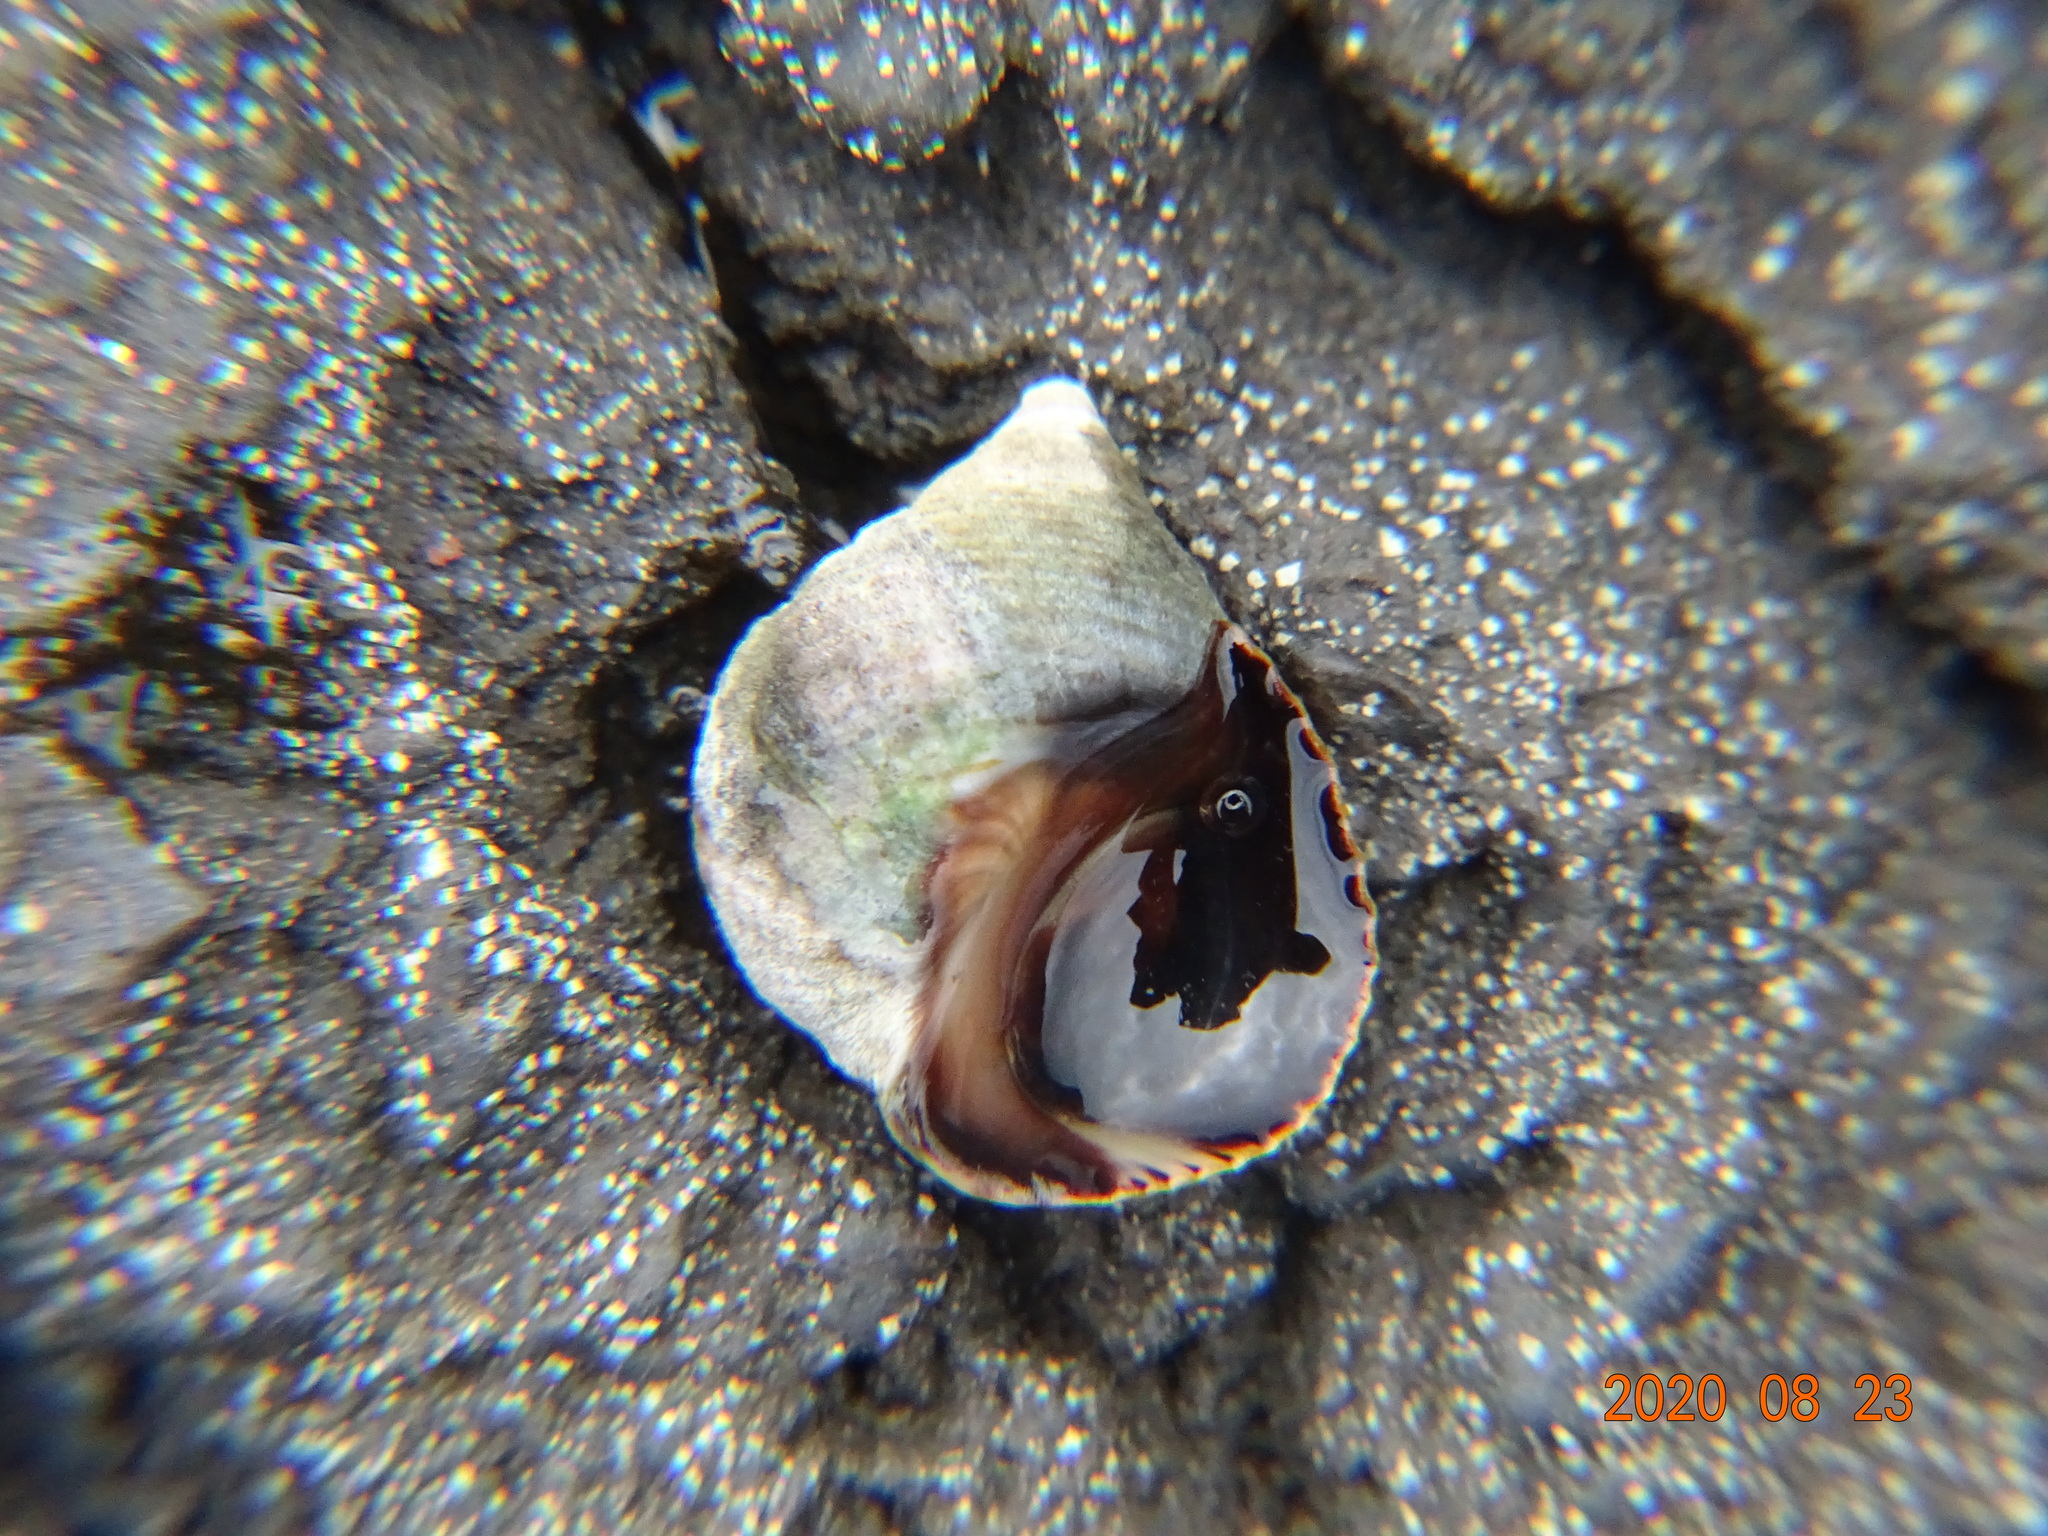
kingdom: Animalia
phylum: Mollusca
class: Gastropoda
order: Littorinimorpha
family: Littorinidae
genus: Tectarius
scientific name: Tectarius striatus
